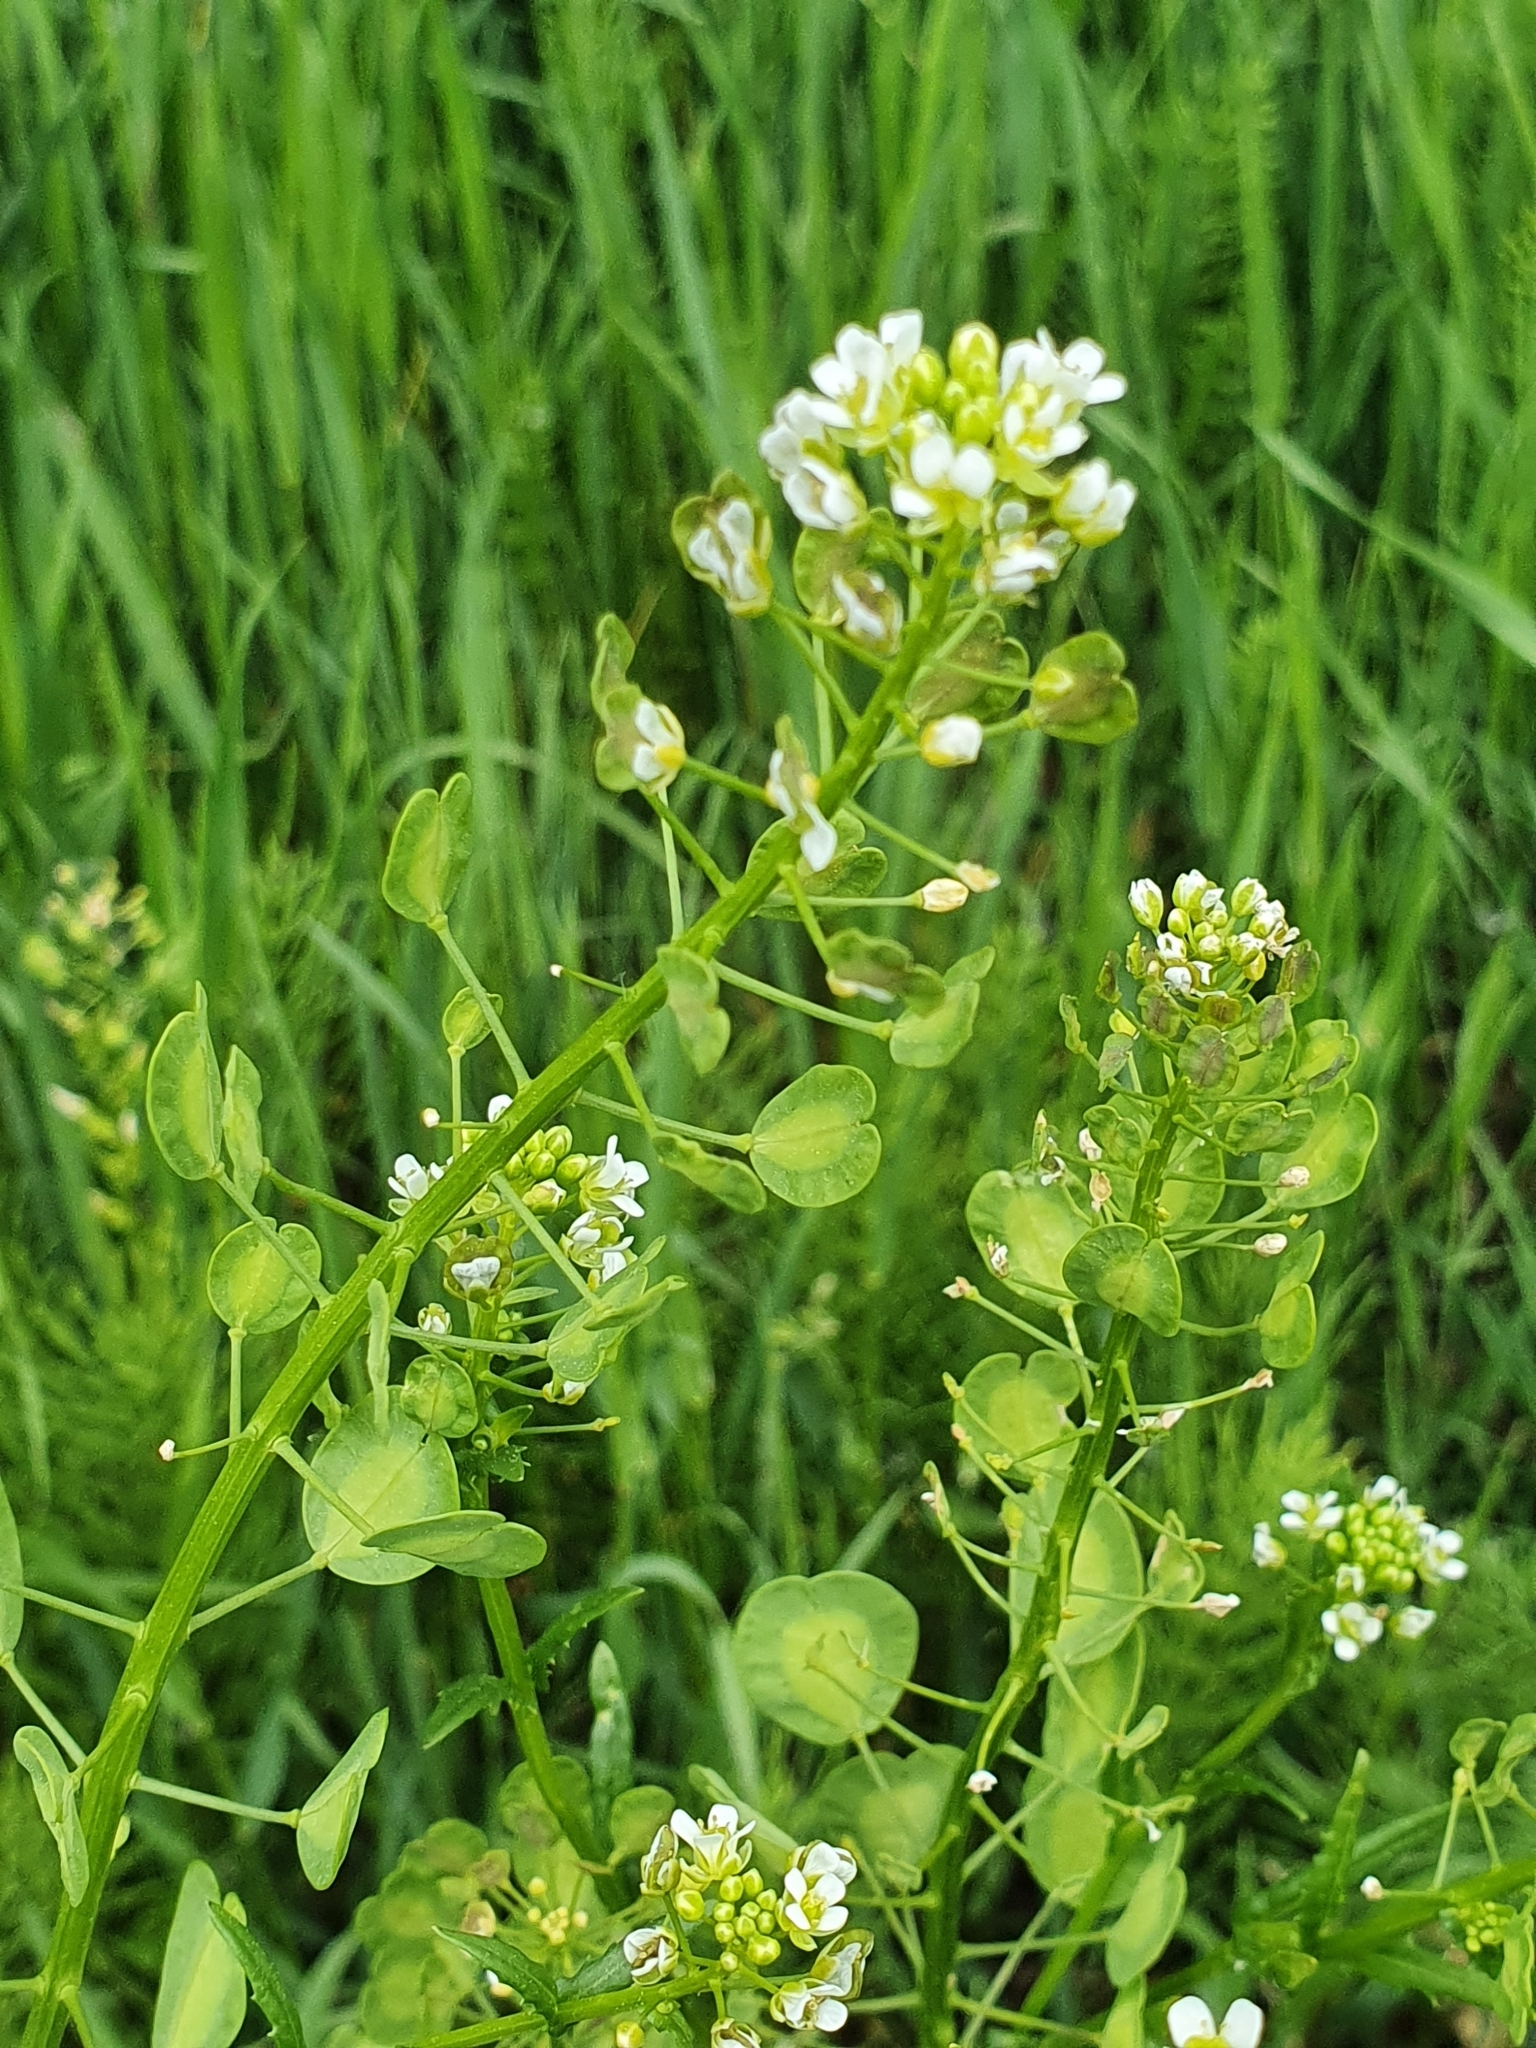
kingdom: Plantae
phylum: Tracheophyta
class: Magnoliopsida
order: Brassicales
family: Brassicaceae
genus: Thlaspi
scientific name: Thlaspi arvense
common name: Field pennycress
